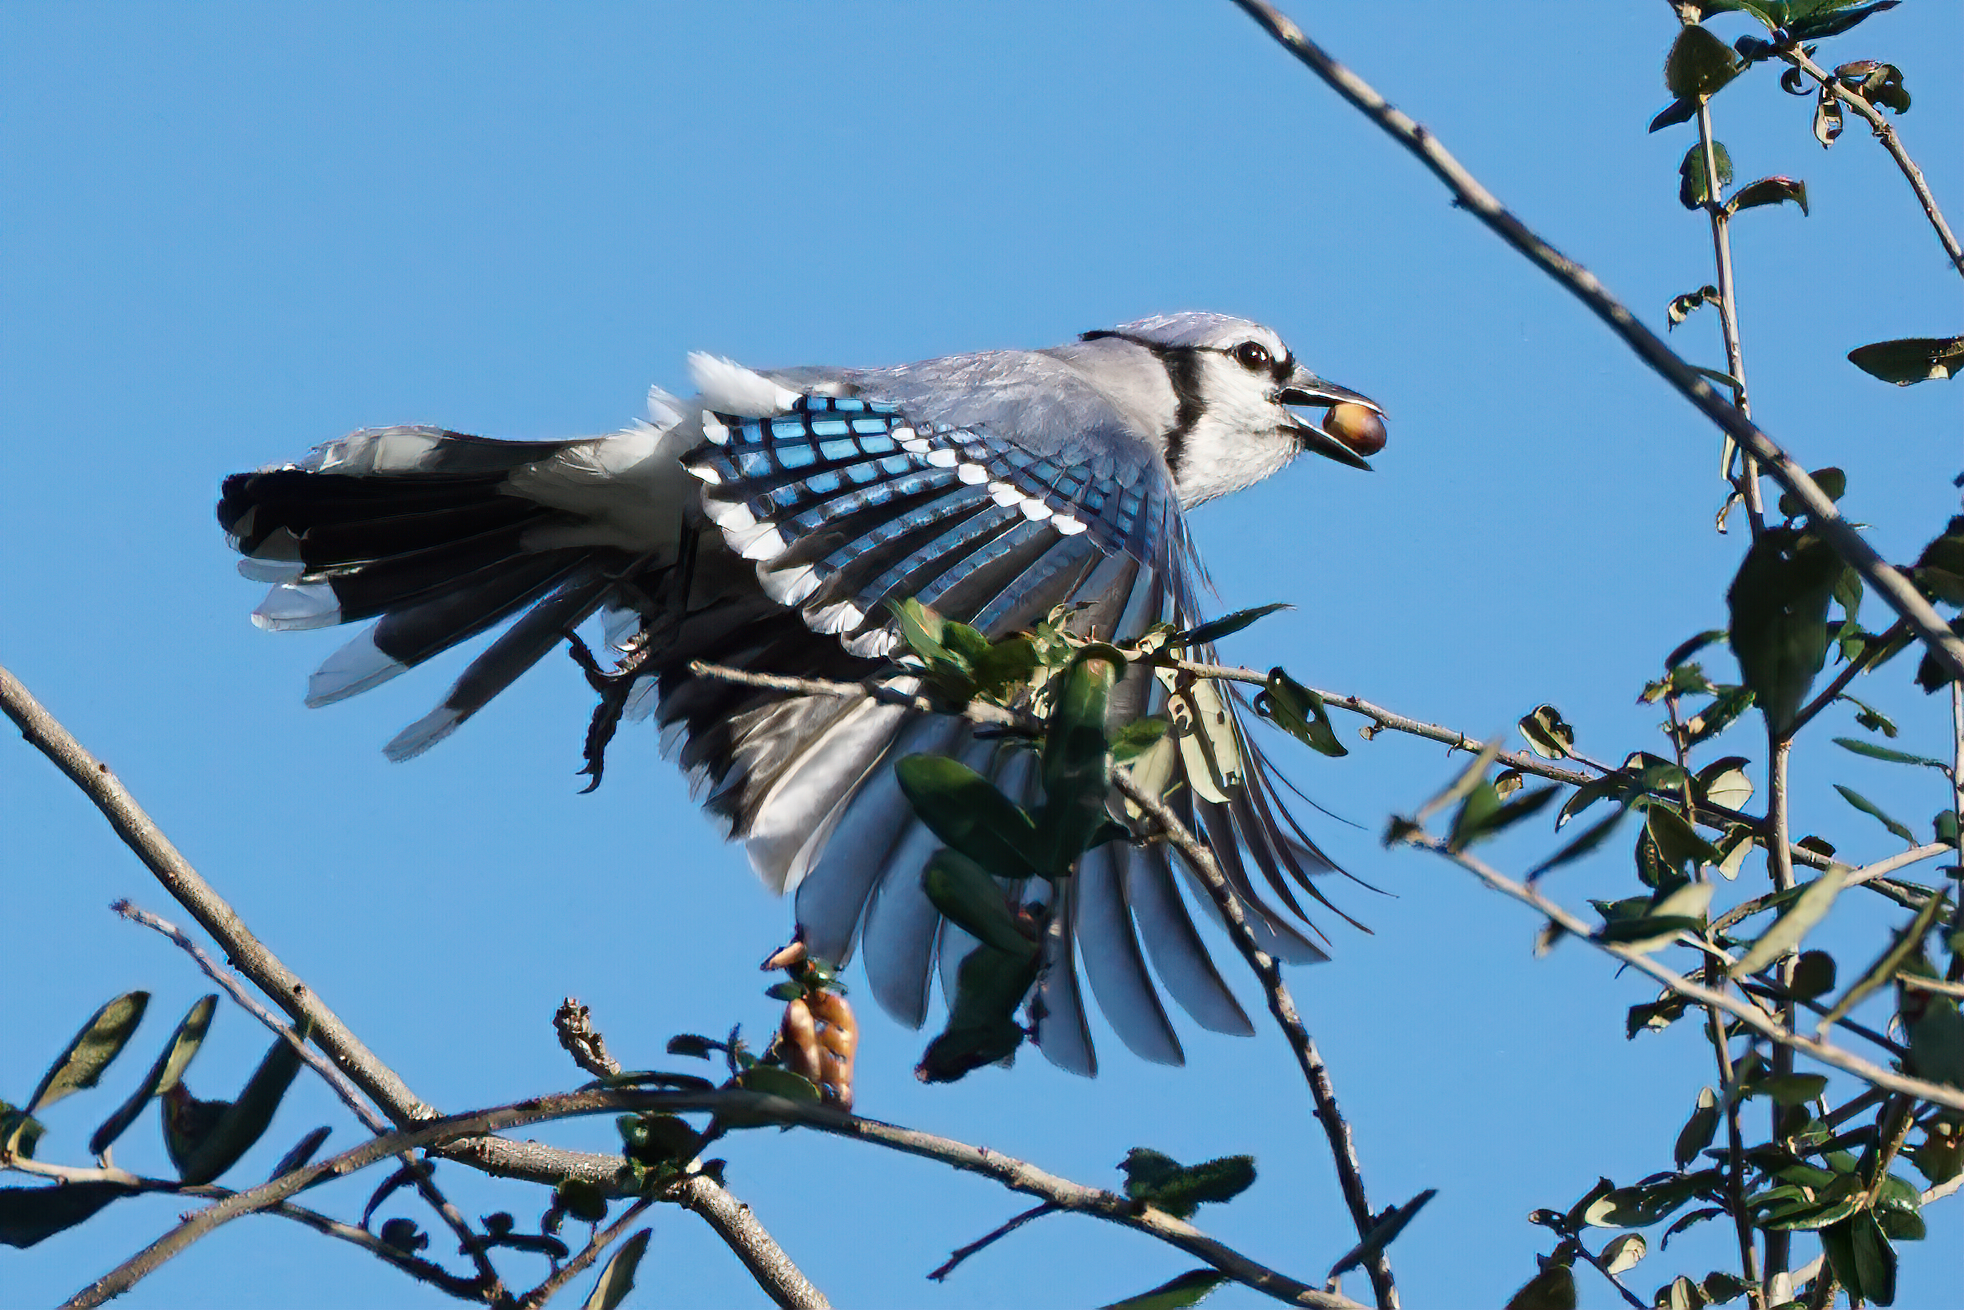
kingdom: Animalia
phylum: Chordata
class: Aves
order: Passeriformes
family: Corvidae
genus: Cyanocitta
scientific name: Cyanocitta cristata
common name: Blue jay
